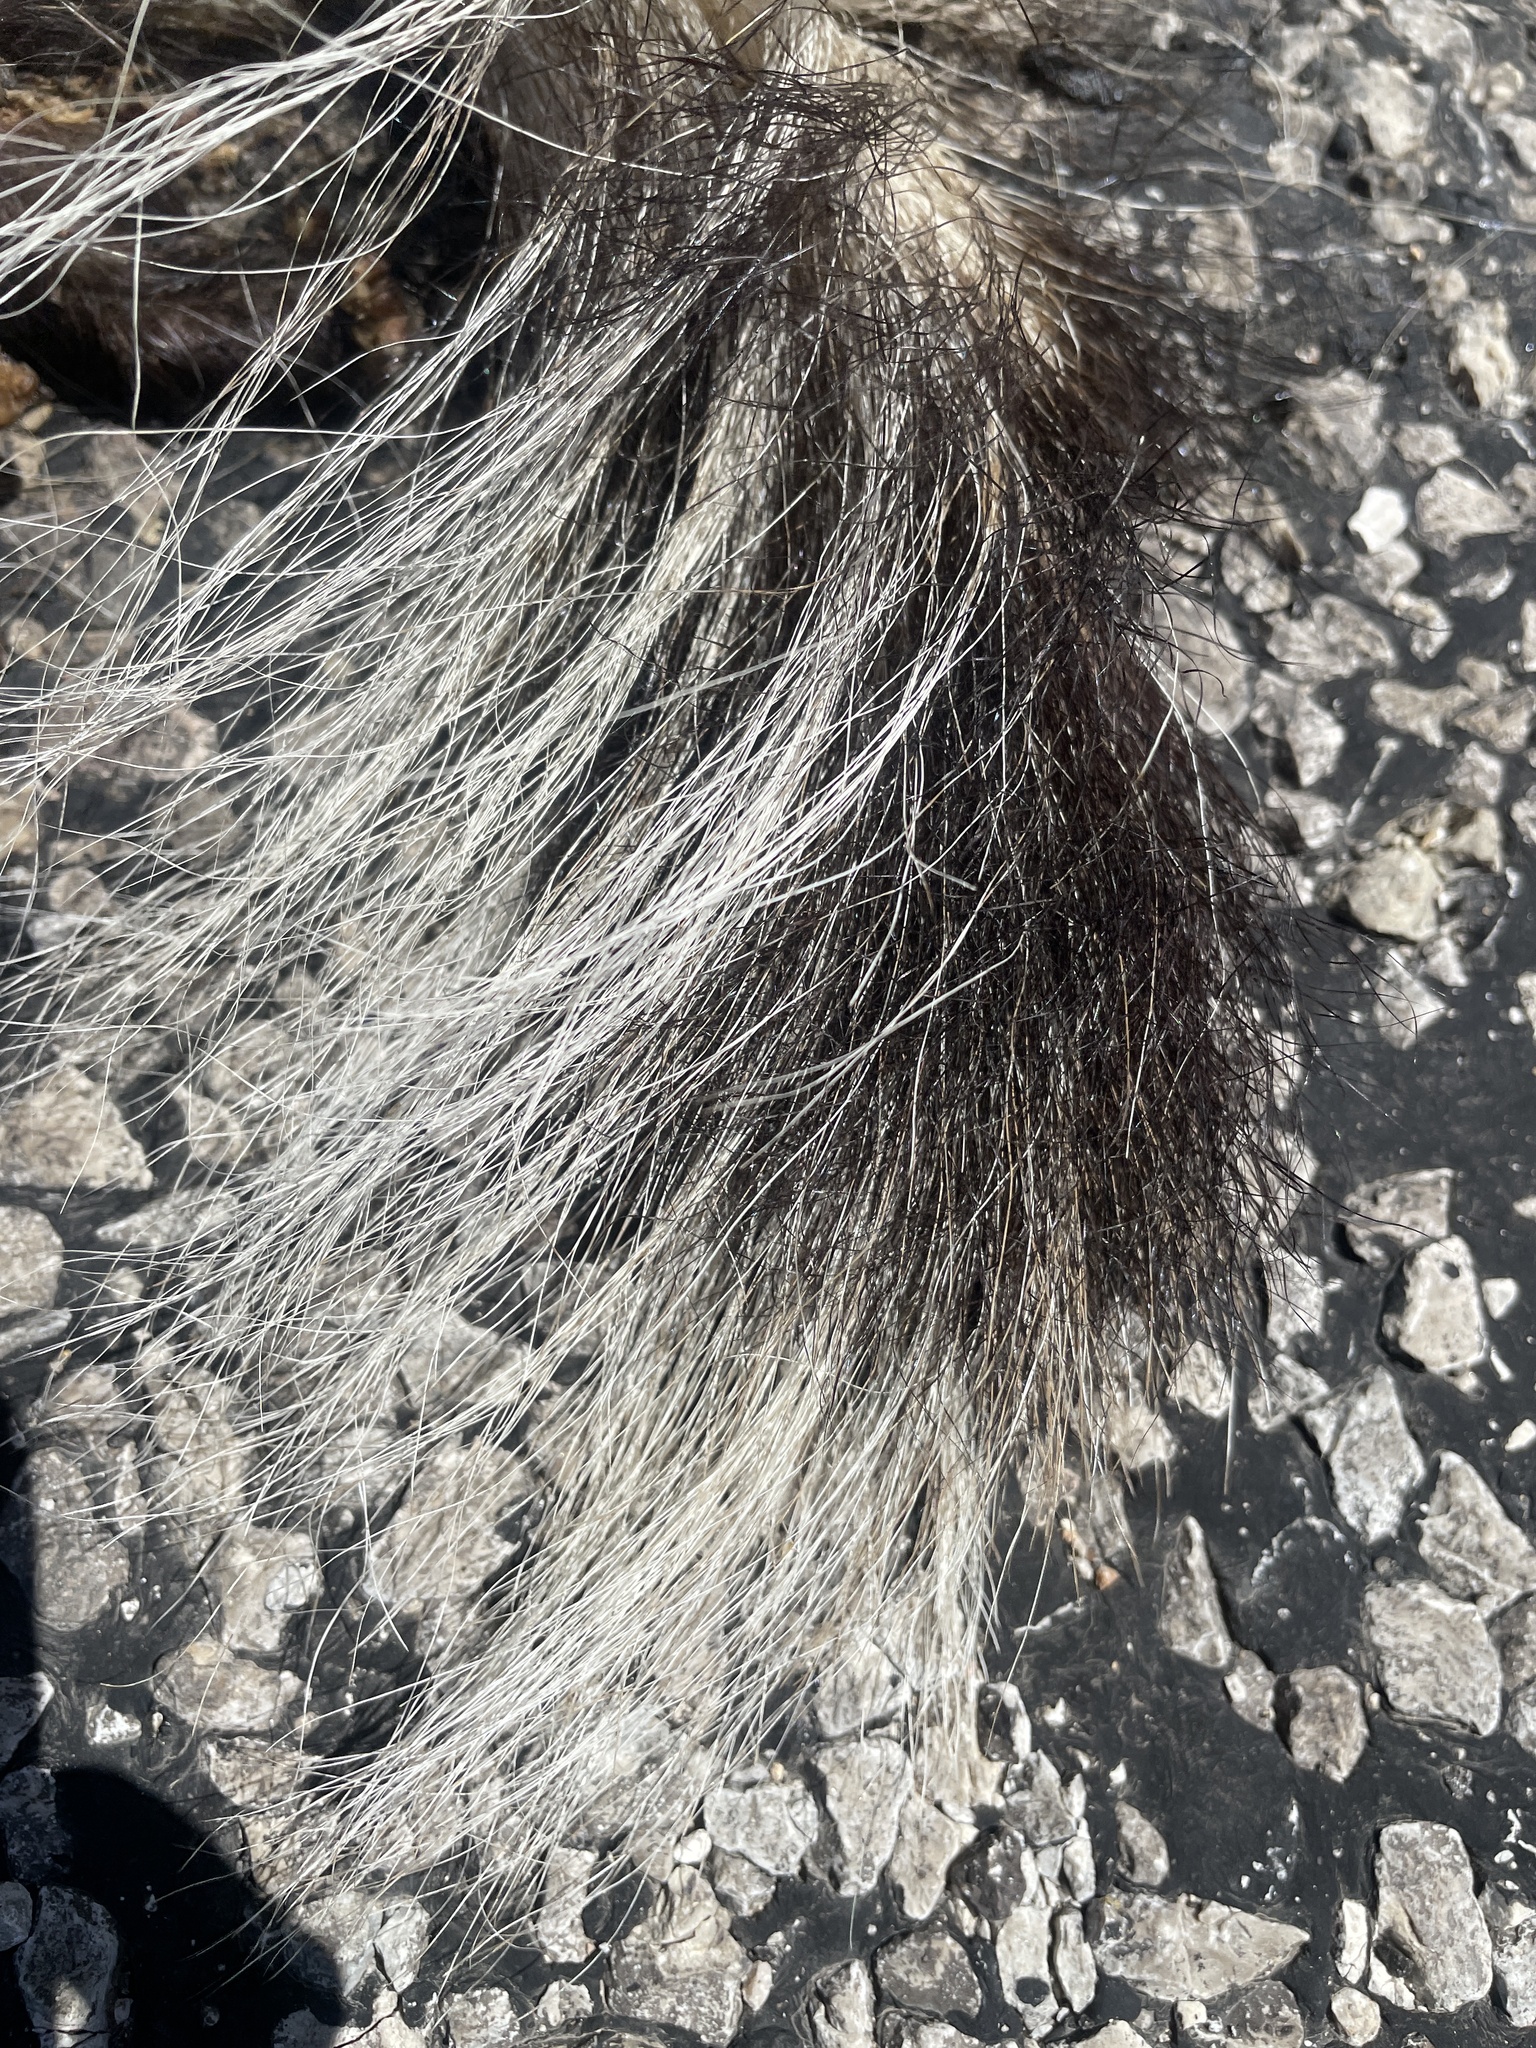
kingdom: Animalia
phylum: Chordata
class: Mammalia
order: Carnivora
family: Mephitidae
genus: Mephitis
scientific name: Mephitis mephitis
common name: Striped skunk
